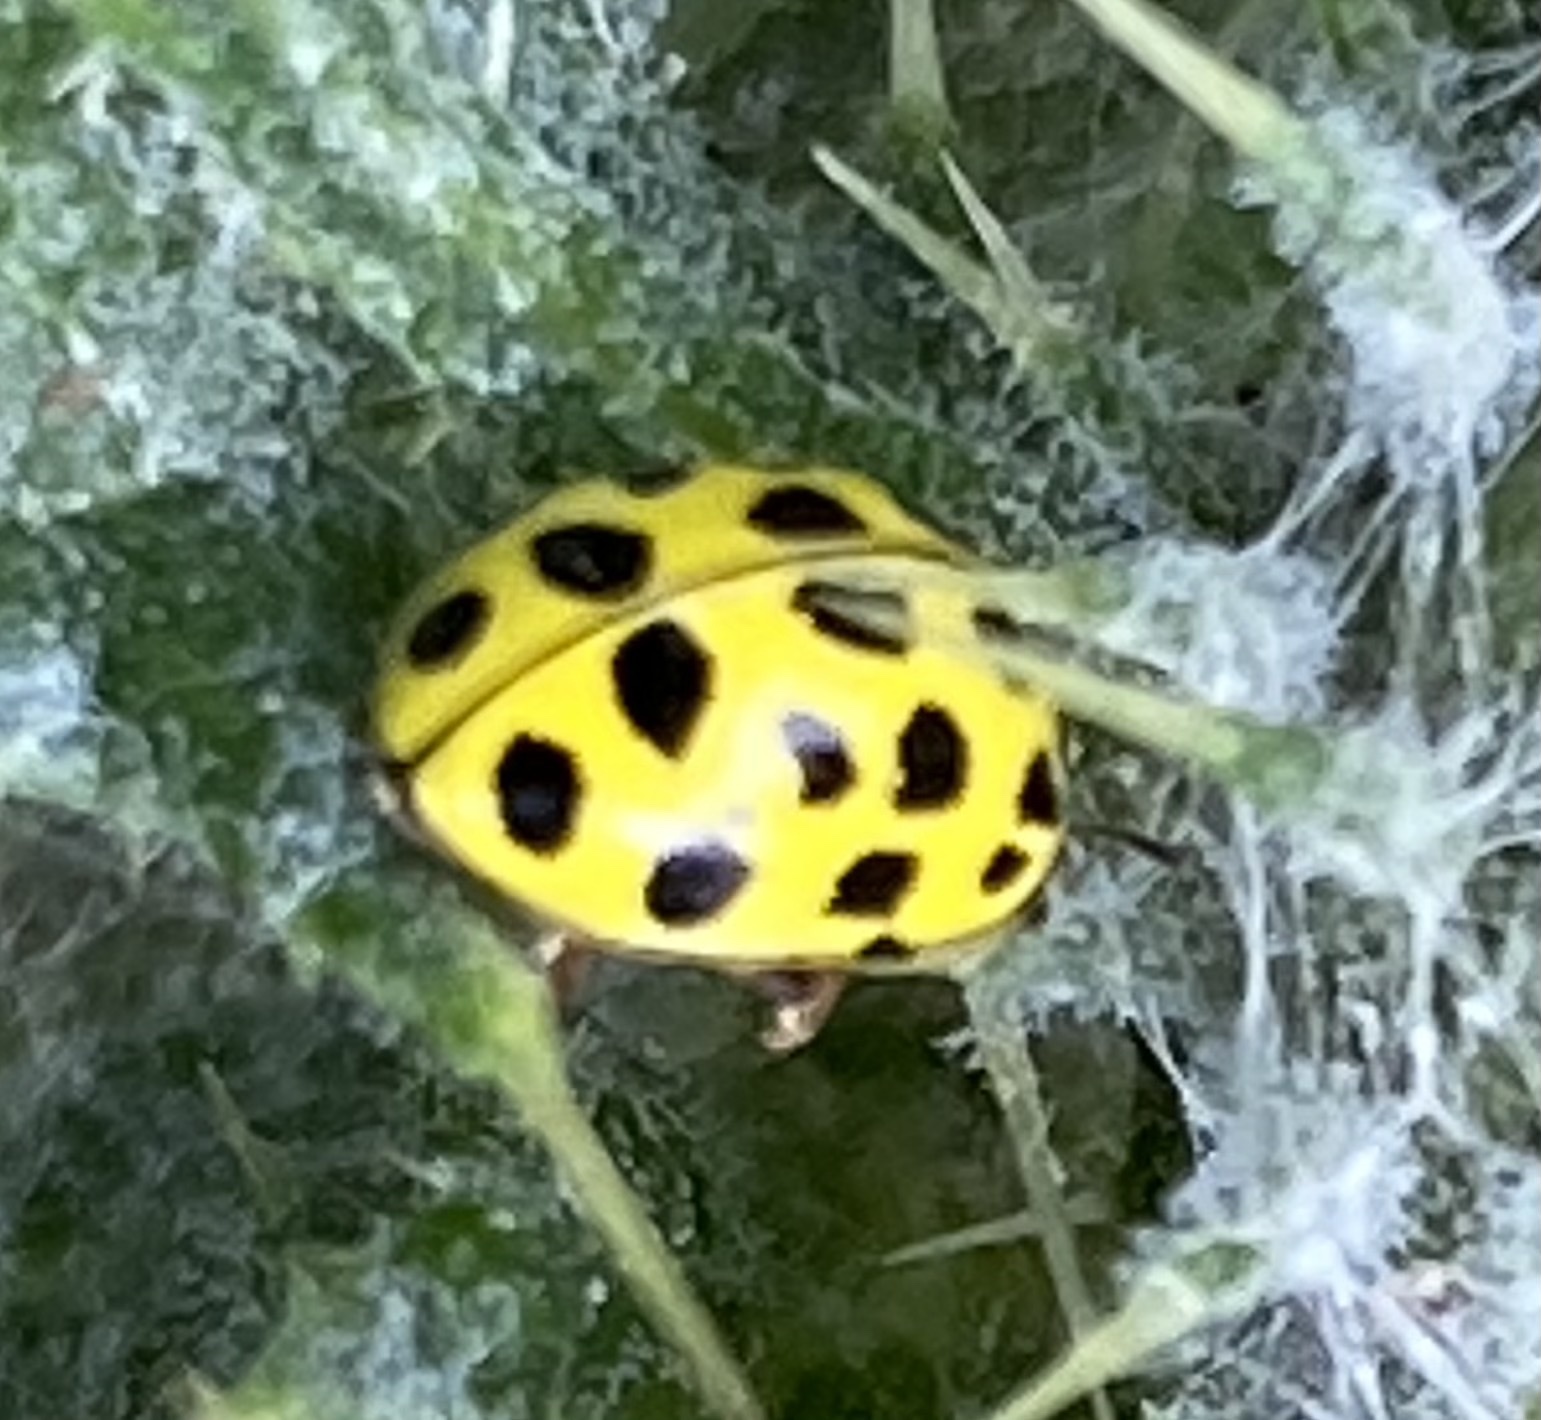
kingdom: Animalia
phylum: Arthropoda
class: Insecta
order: Coleoptera
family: Coccinellidae
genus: Psyllobora
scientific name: Psyllobora vigintiduopunctata
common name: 22-spot ladybird
